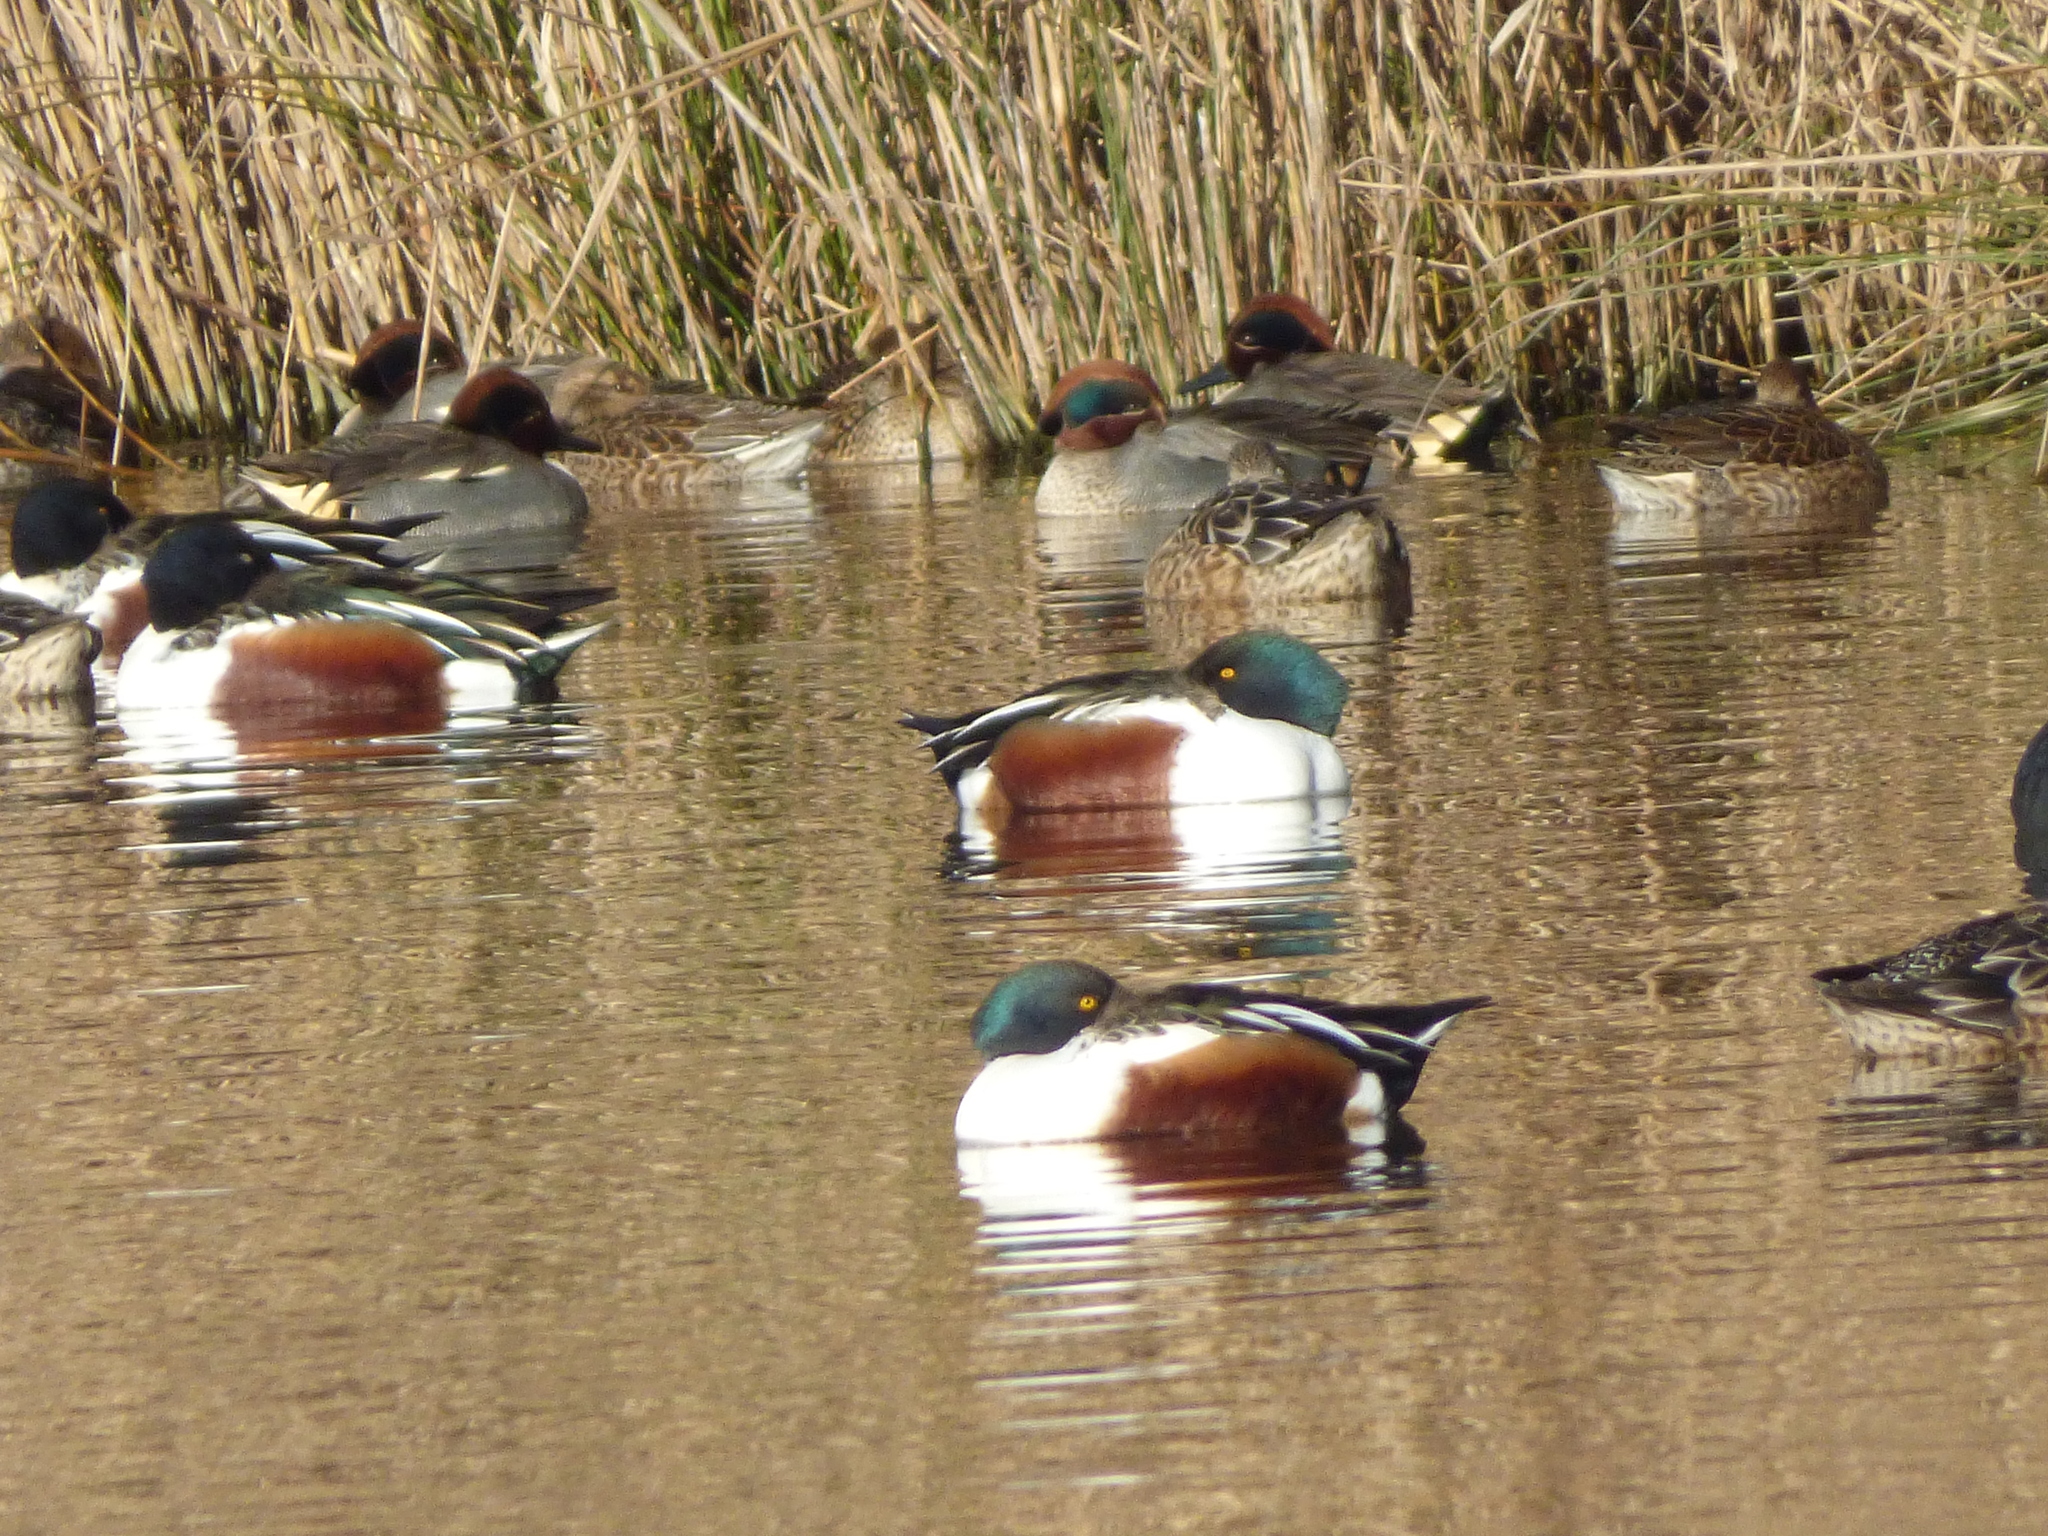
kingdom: Animalia
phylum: Chordata
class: Aves
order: Anseriformes
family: Anatidae
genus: Spatula
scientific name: Spatula clypeata
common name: Northern shoveler
